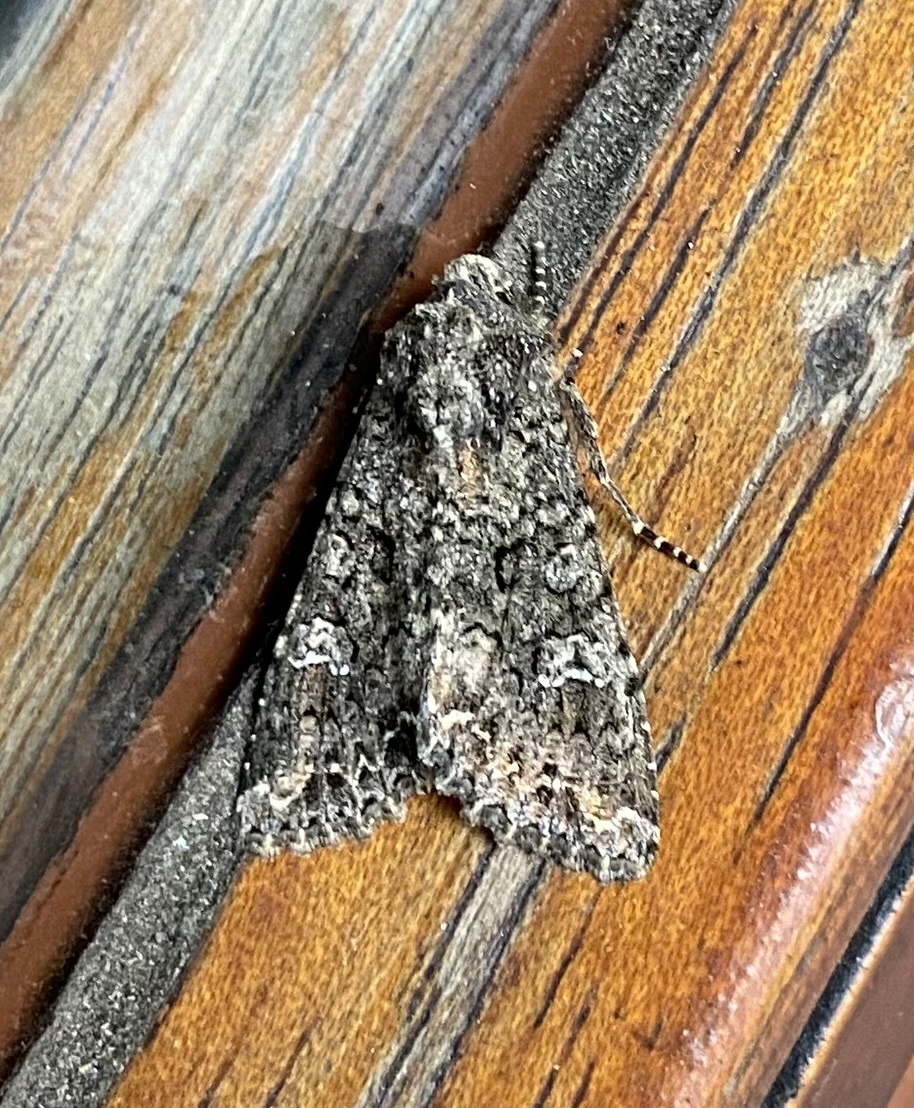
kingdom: Animalia
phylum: Arthropoda
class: Insecta
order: Lepidoptera
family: Noctuidae
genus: Mamestra
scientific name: Mamestra brassicae
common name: Cabbage moth
